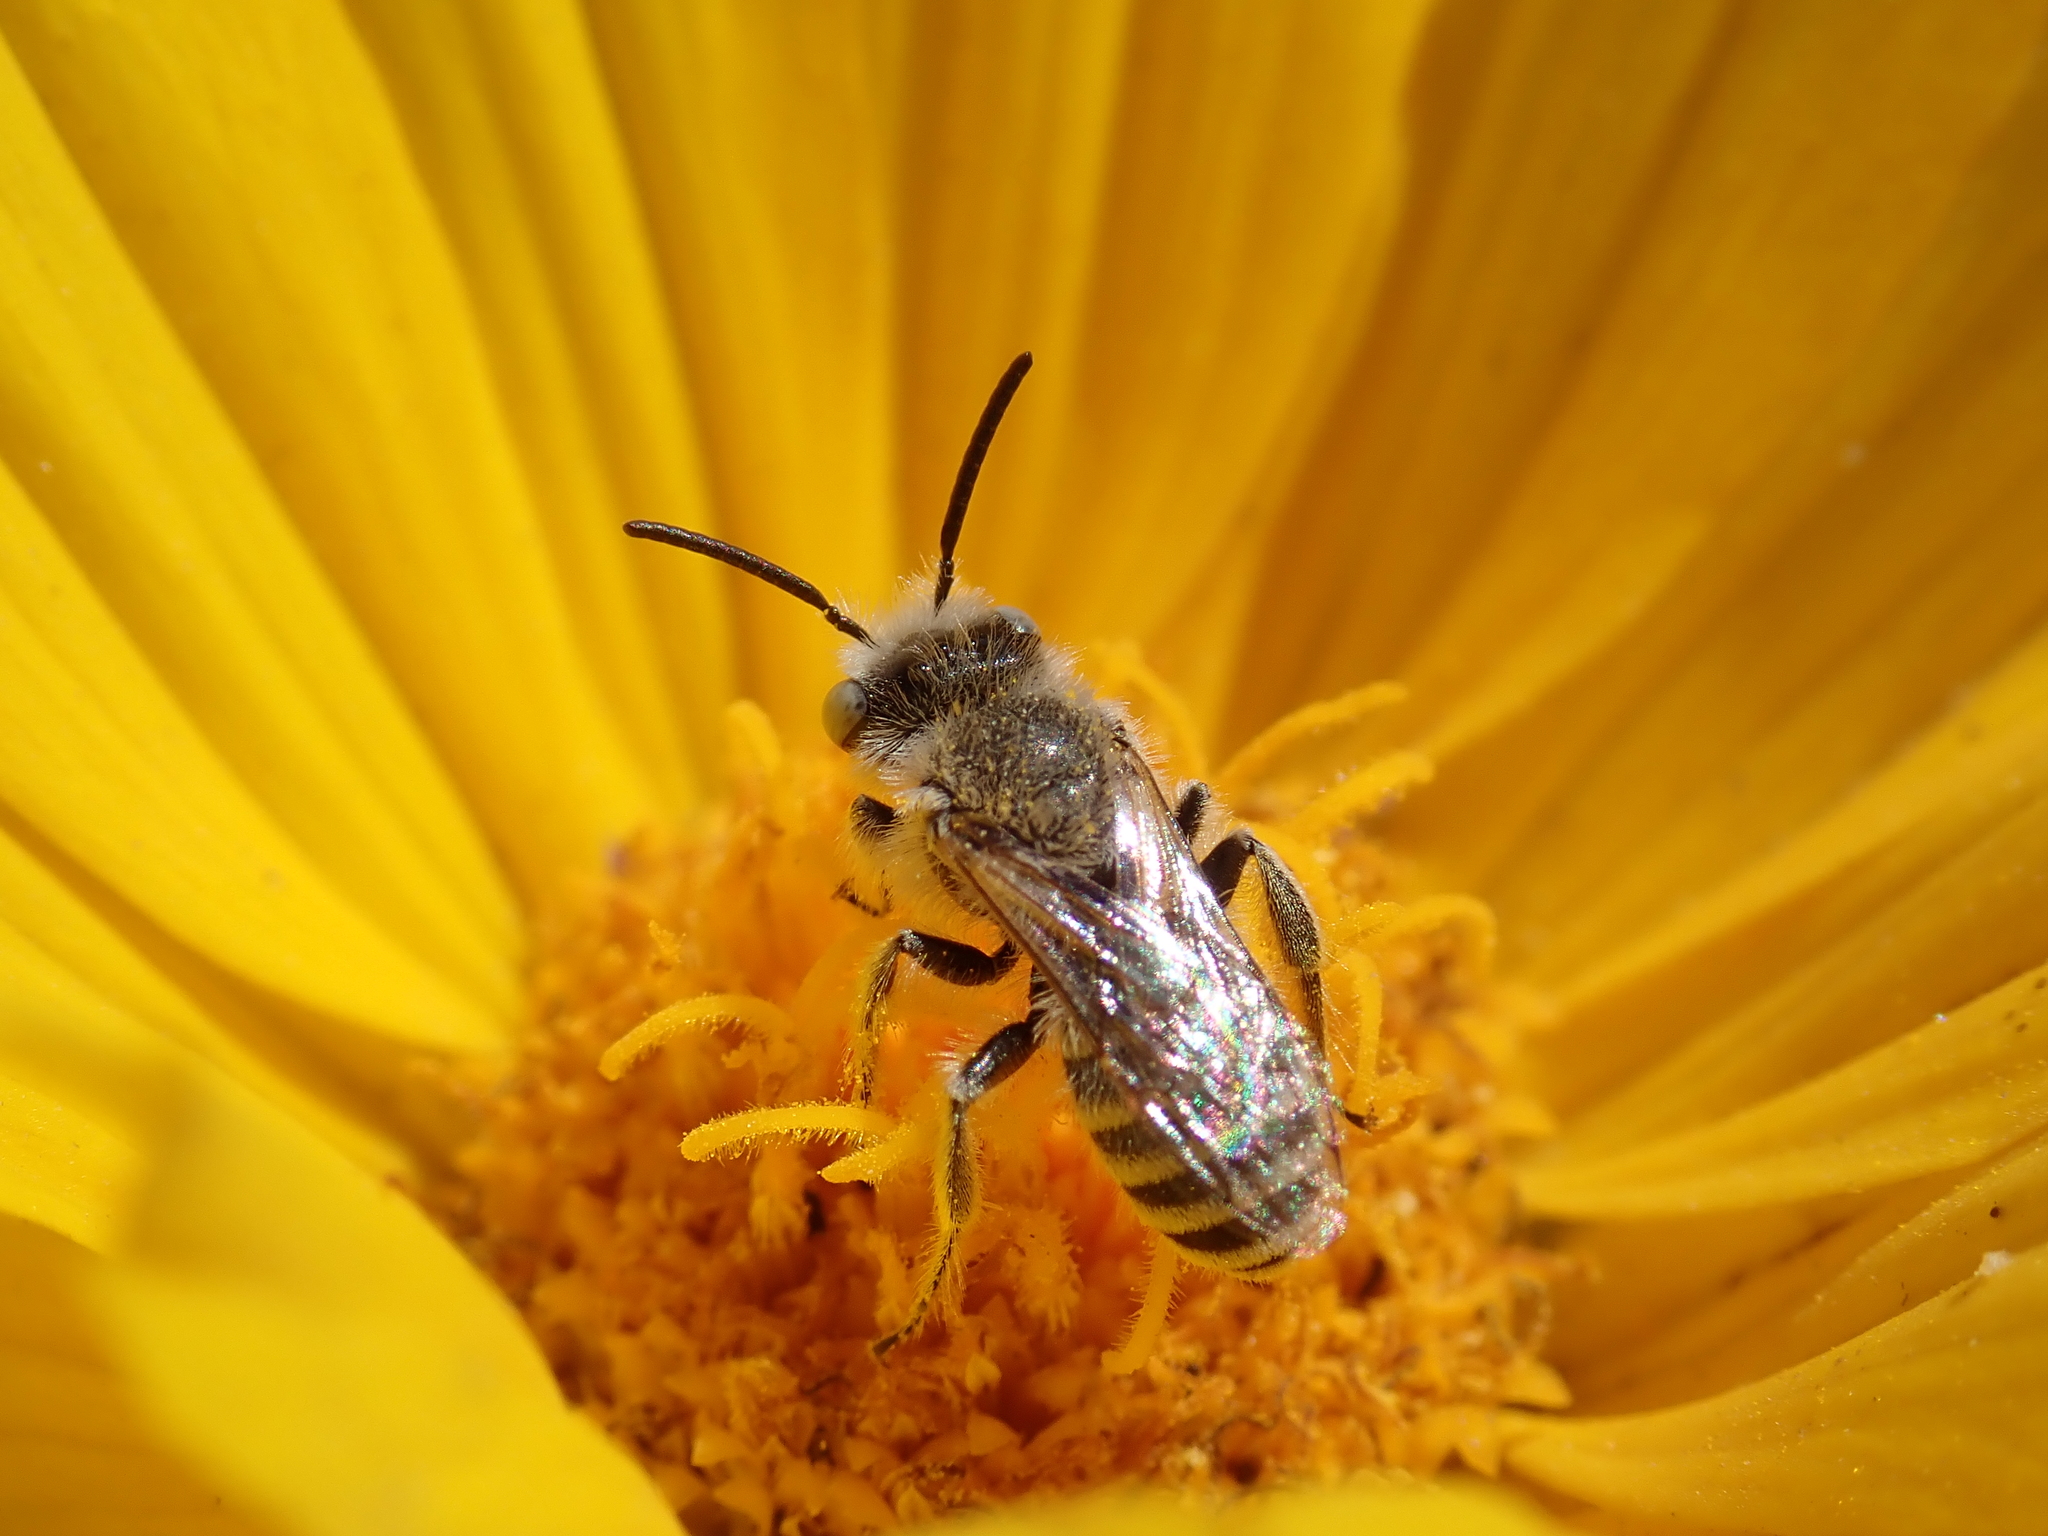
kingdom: Animalia
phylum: Arthropoda
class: Insecta
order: Hymenoptera
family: Melittidae
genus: Hesperapis
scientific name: Hesperapis
